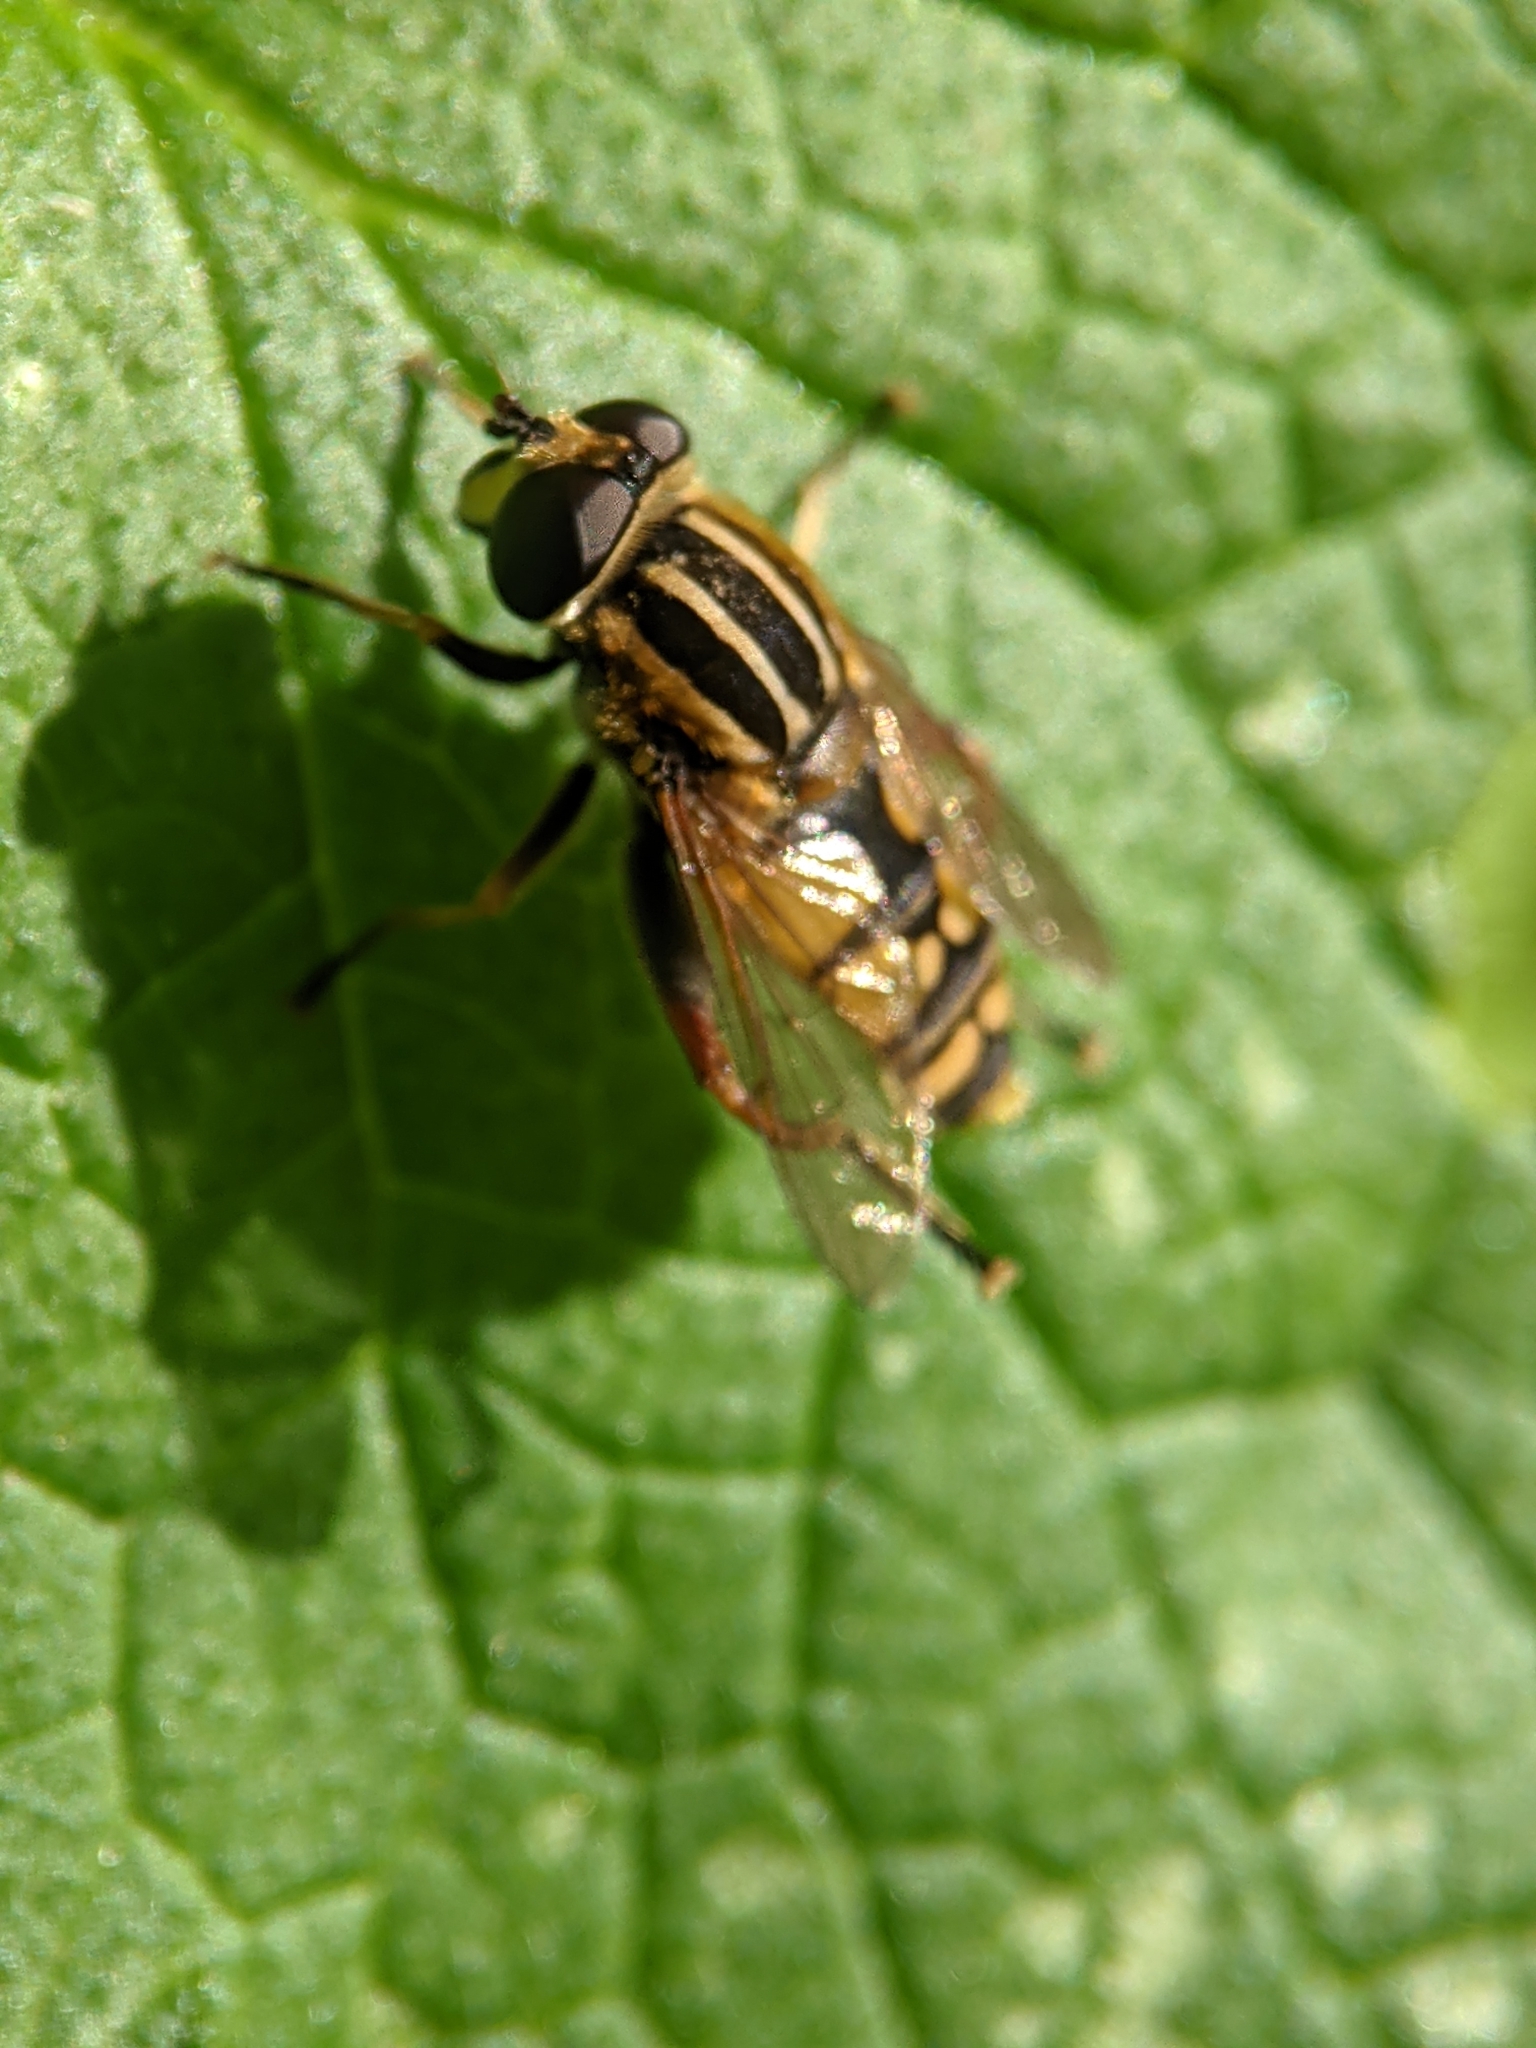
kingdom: Animalia
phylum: Arthropoda
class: Insecta
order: Diptera
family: Syrphidae
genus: Helophilus
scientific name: Helophilus pendulus
